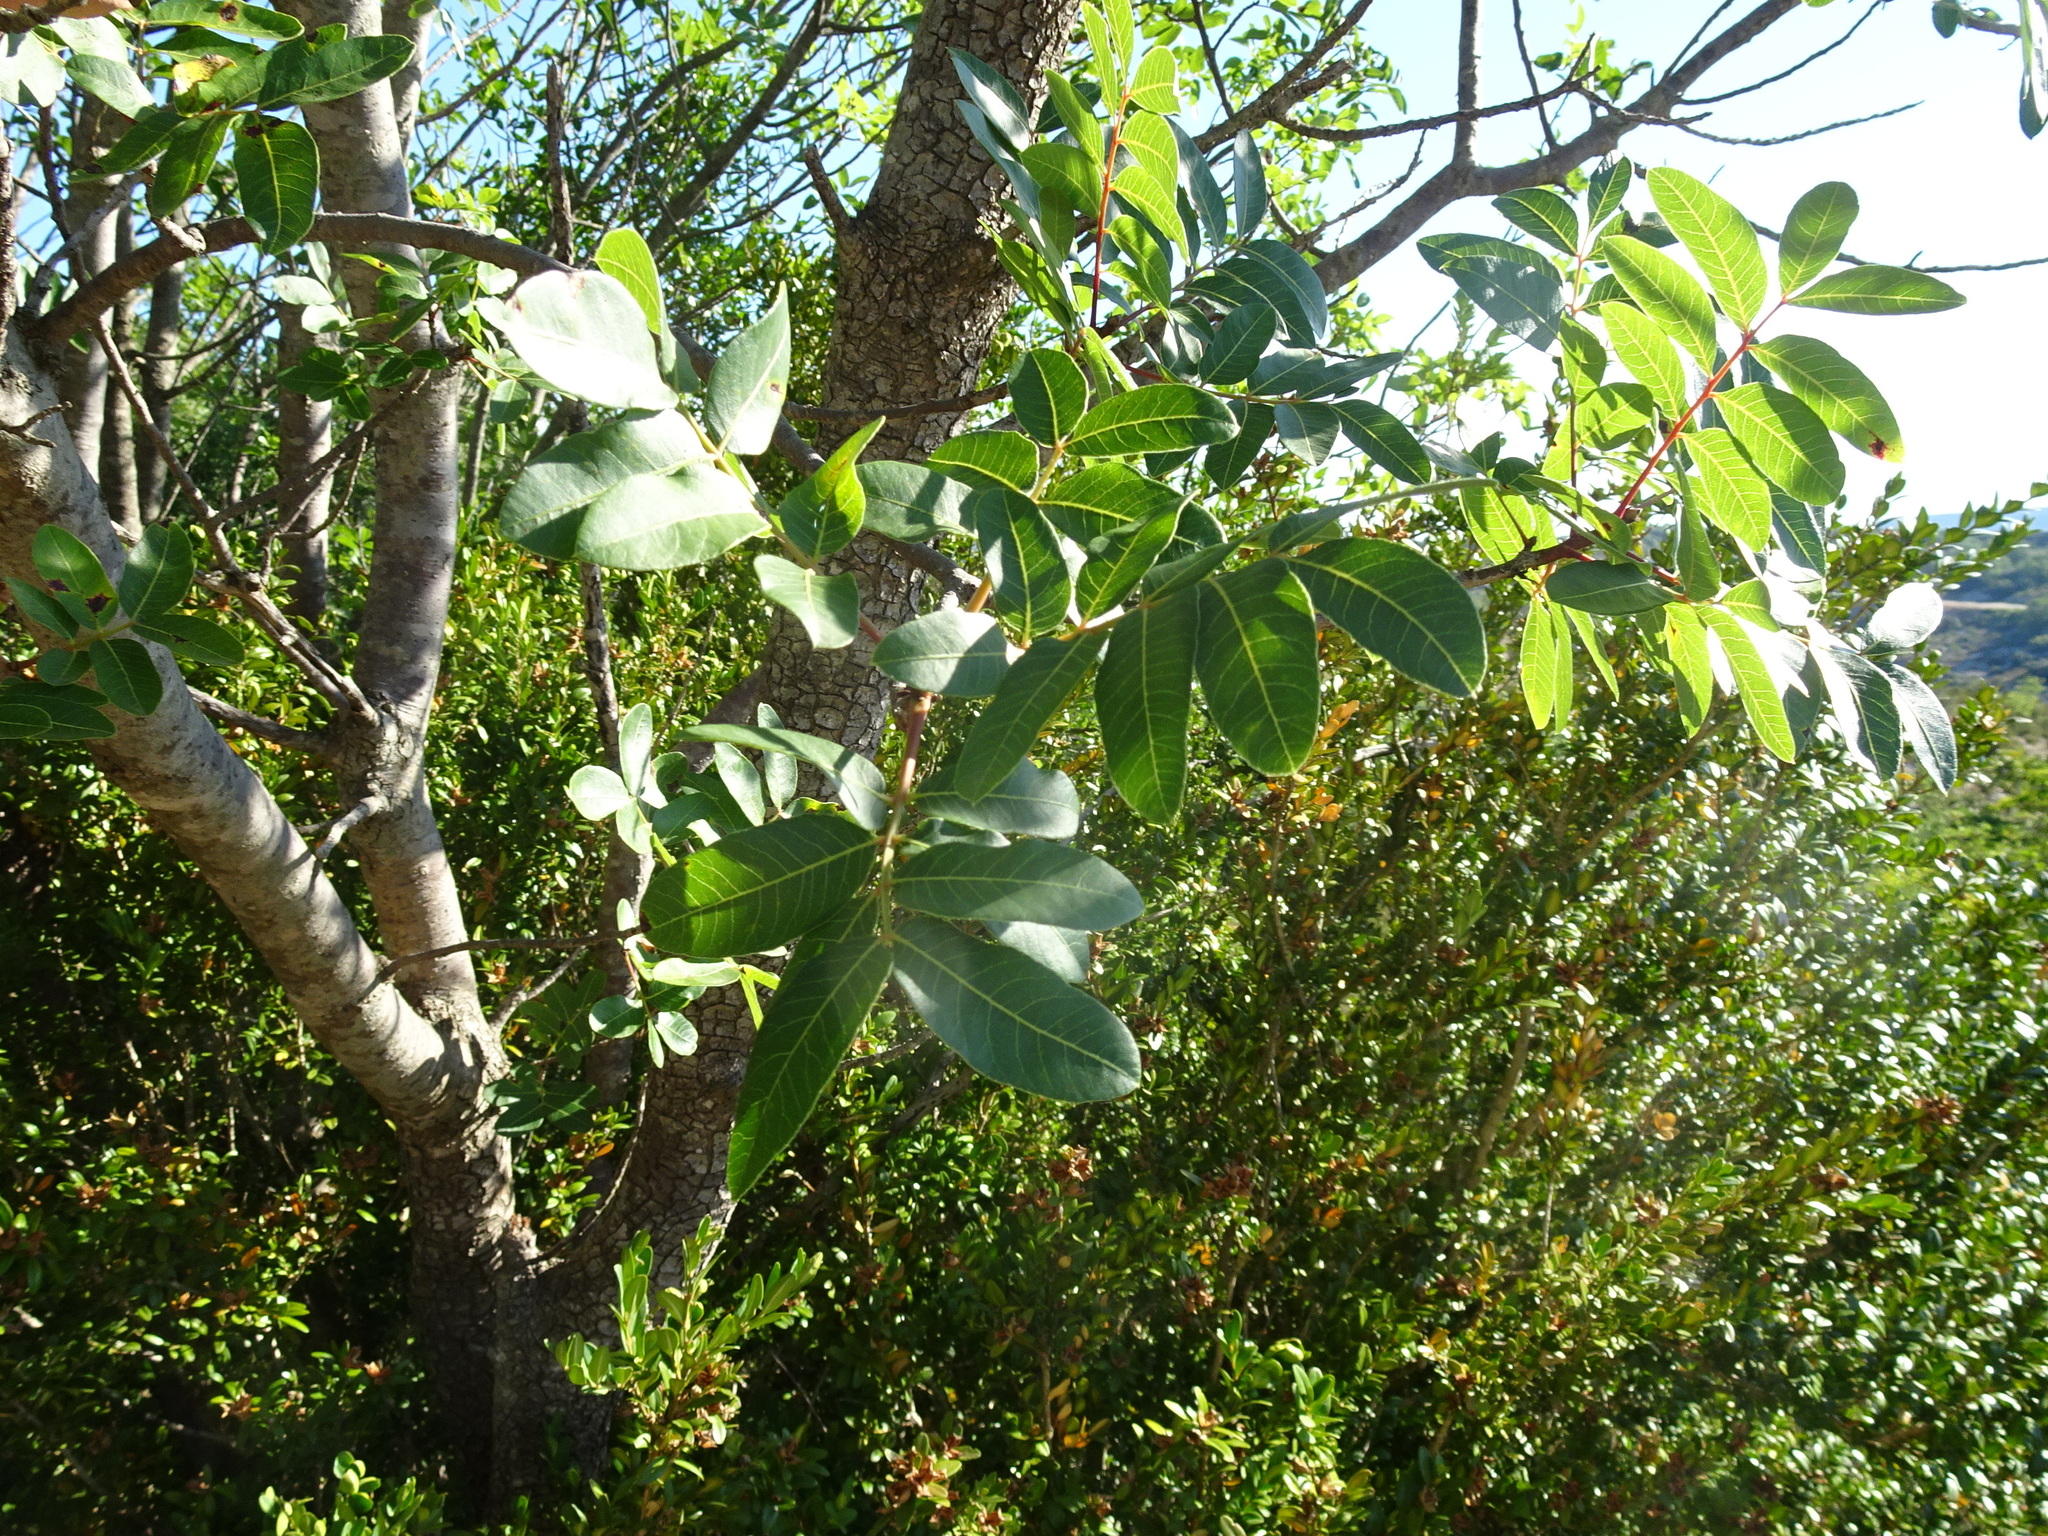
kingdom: Plantae
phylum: Tracheophyta
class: Magnoliopsida
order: Sapindales
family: Anacardiaceae
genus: Pistacia
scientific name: Pistacia terebinthus
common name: Terebinth
